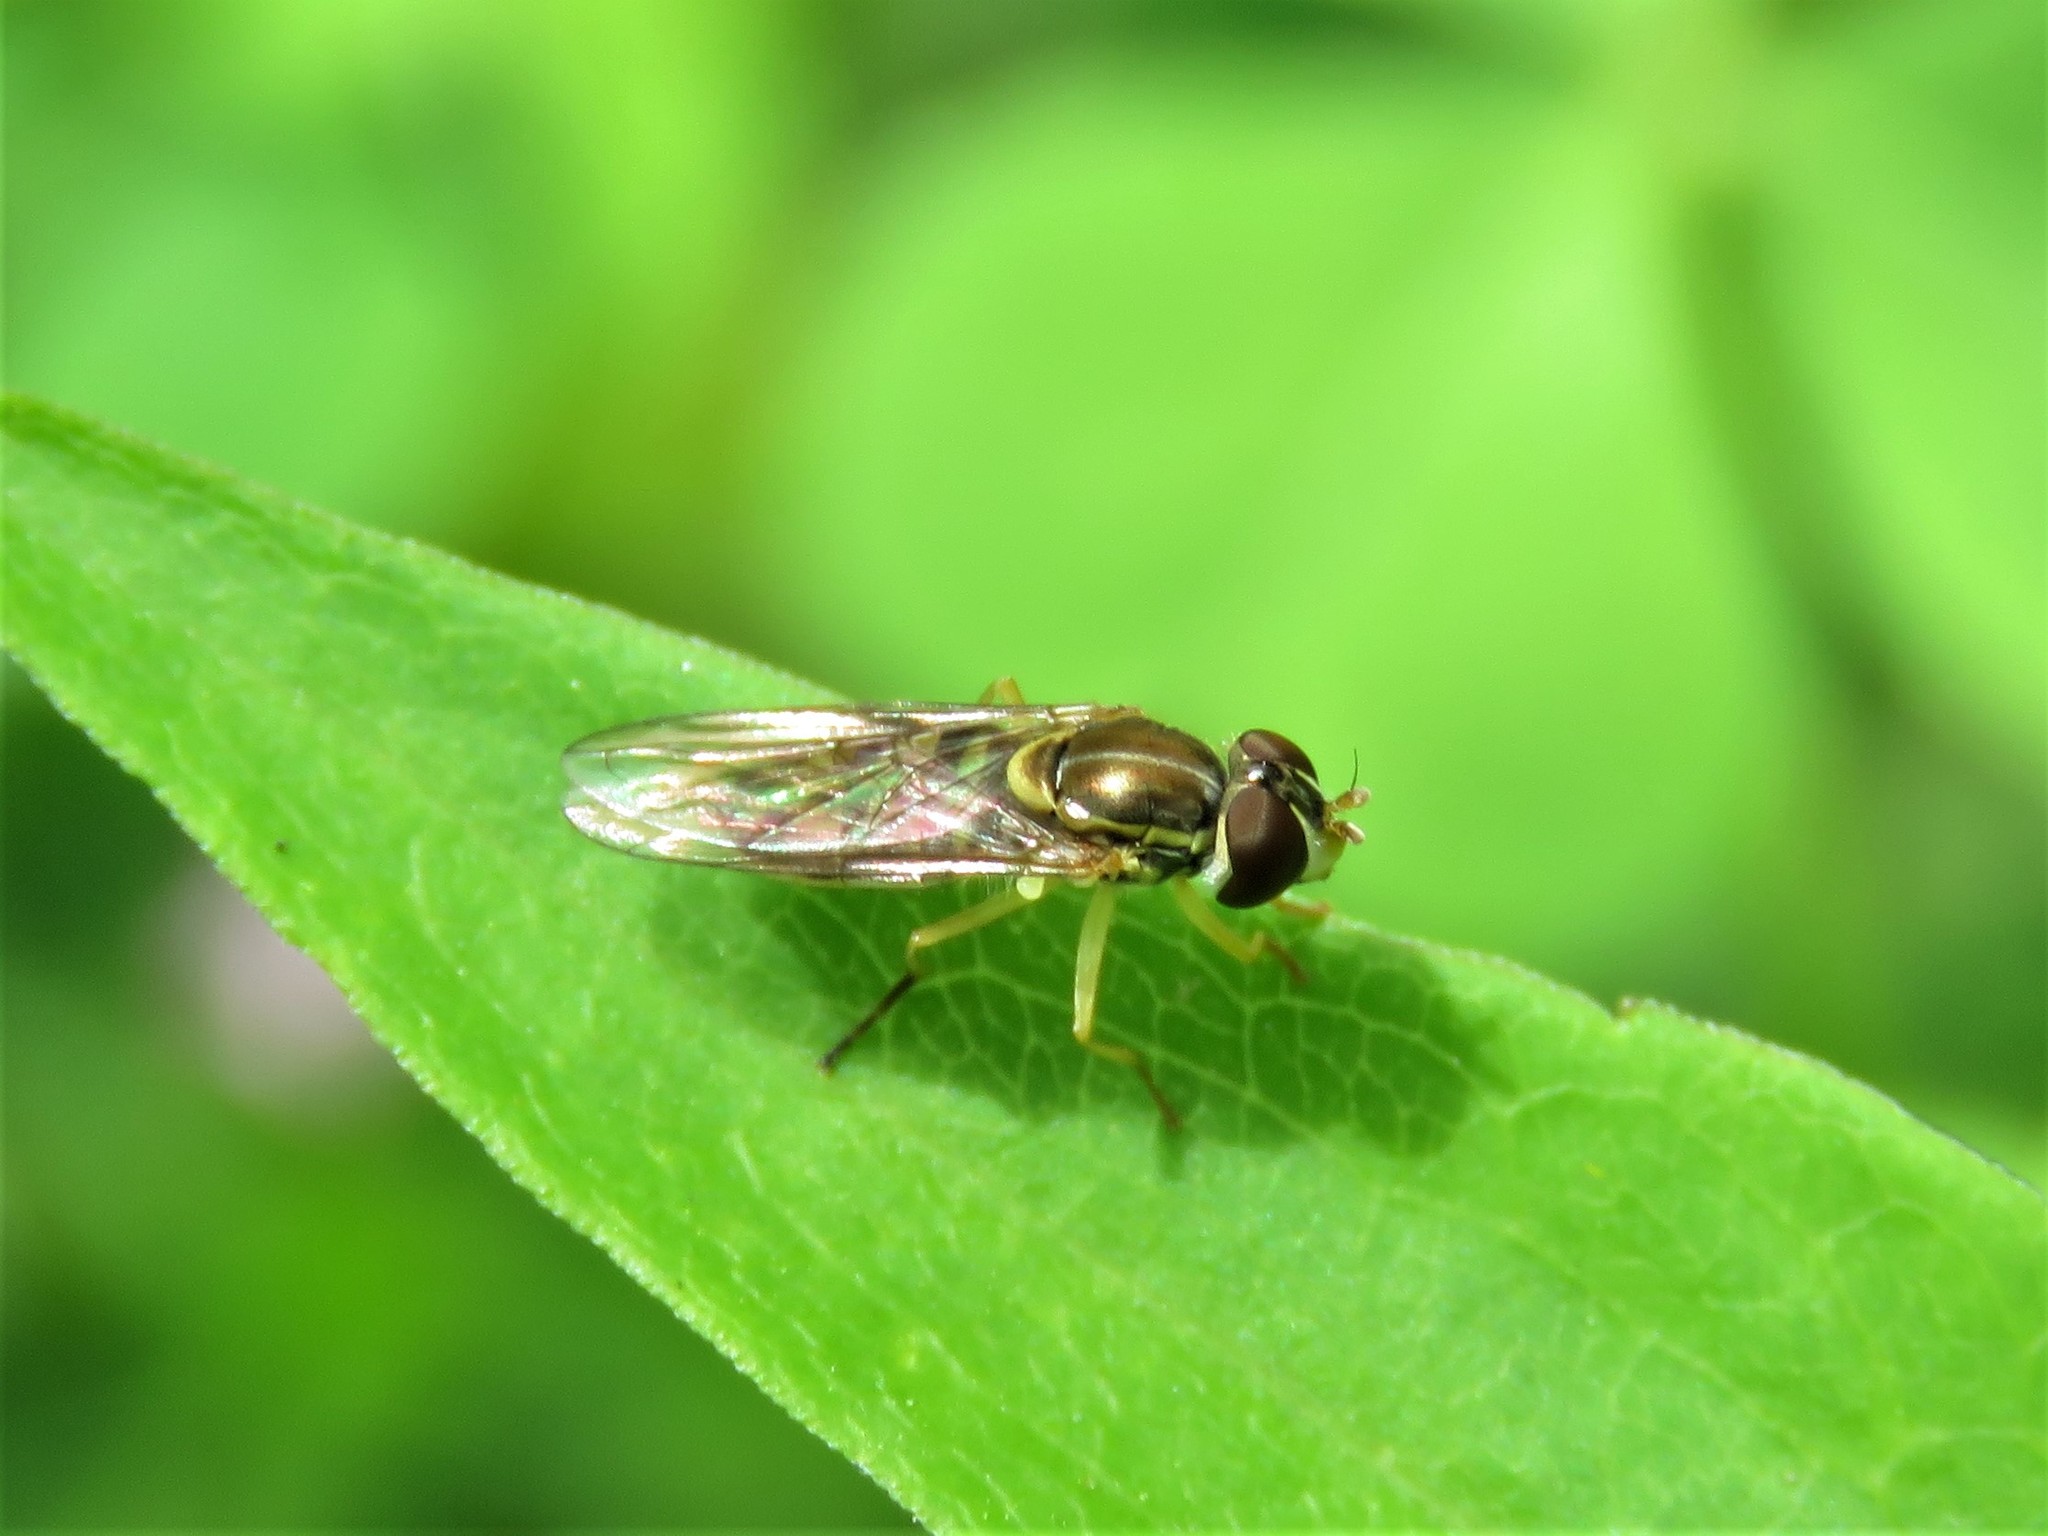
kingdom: Animalia
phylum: Arthropoda
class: Insecta
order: Diptera
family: Syrphidae
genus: Toxomerus
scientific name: Toxomerus marginatus
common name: Syrphid fly
